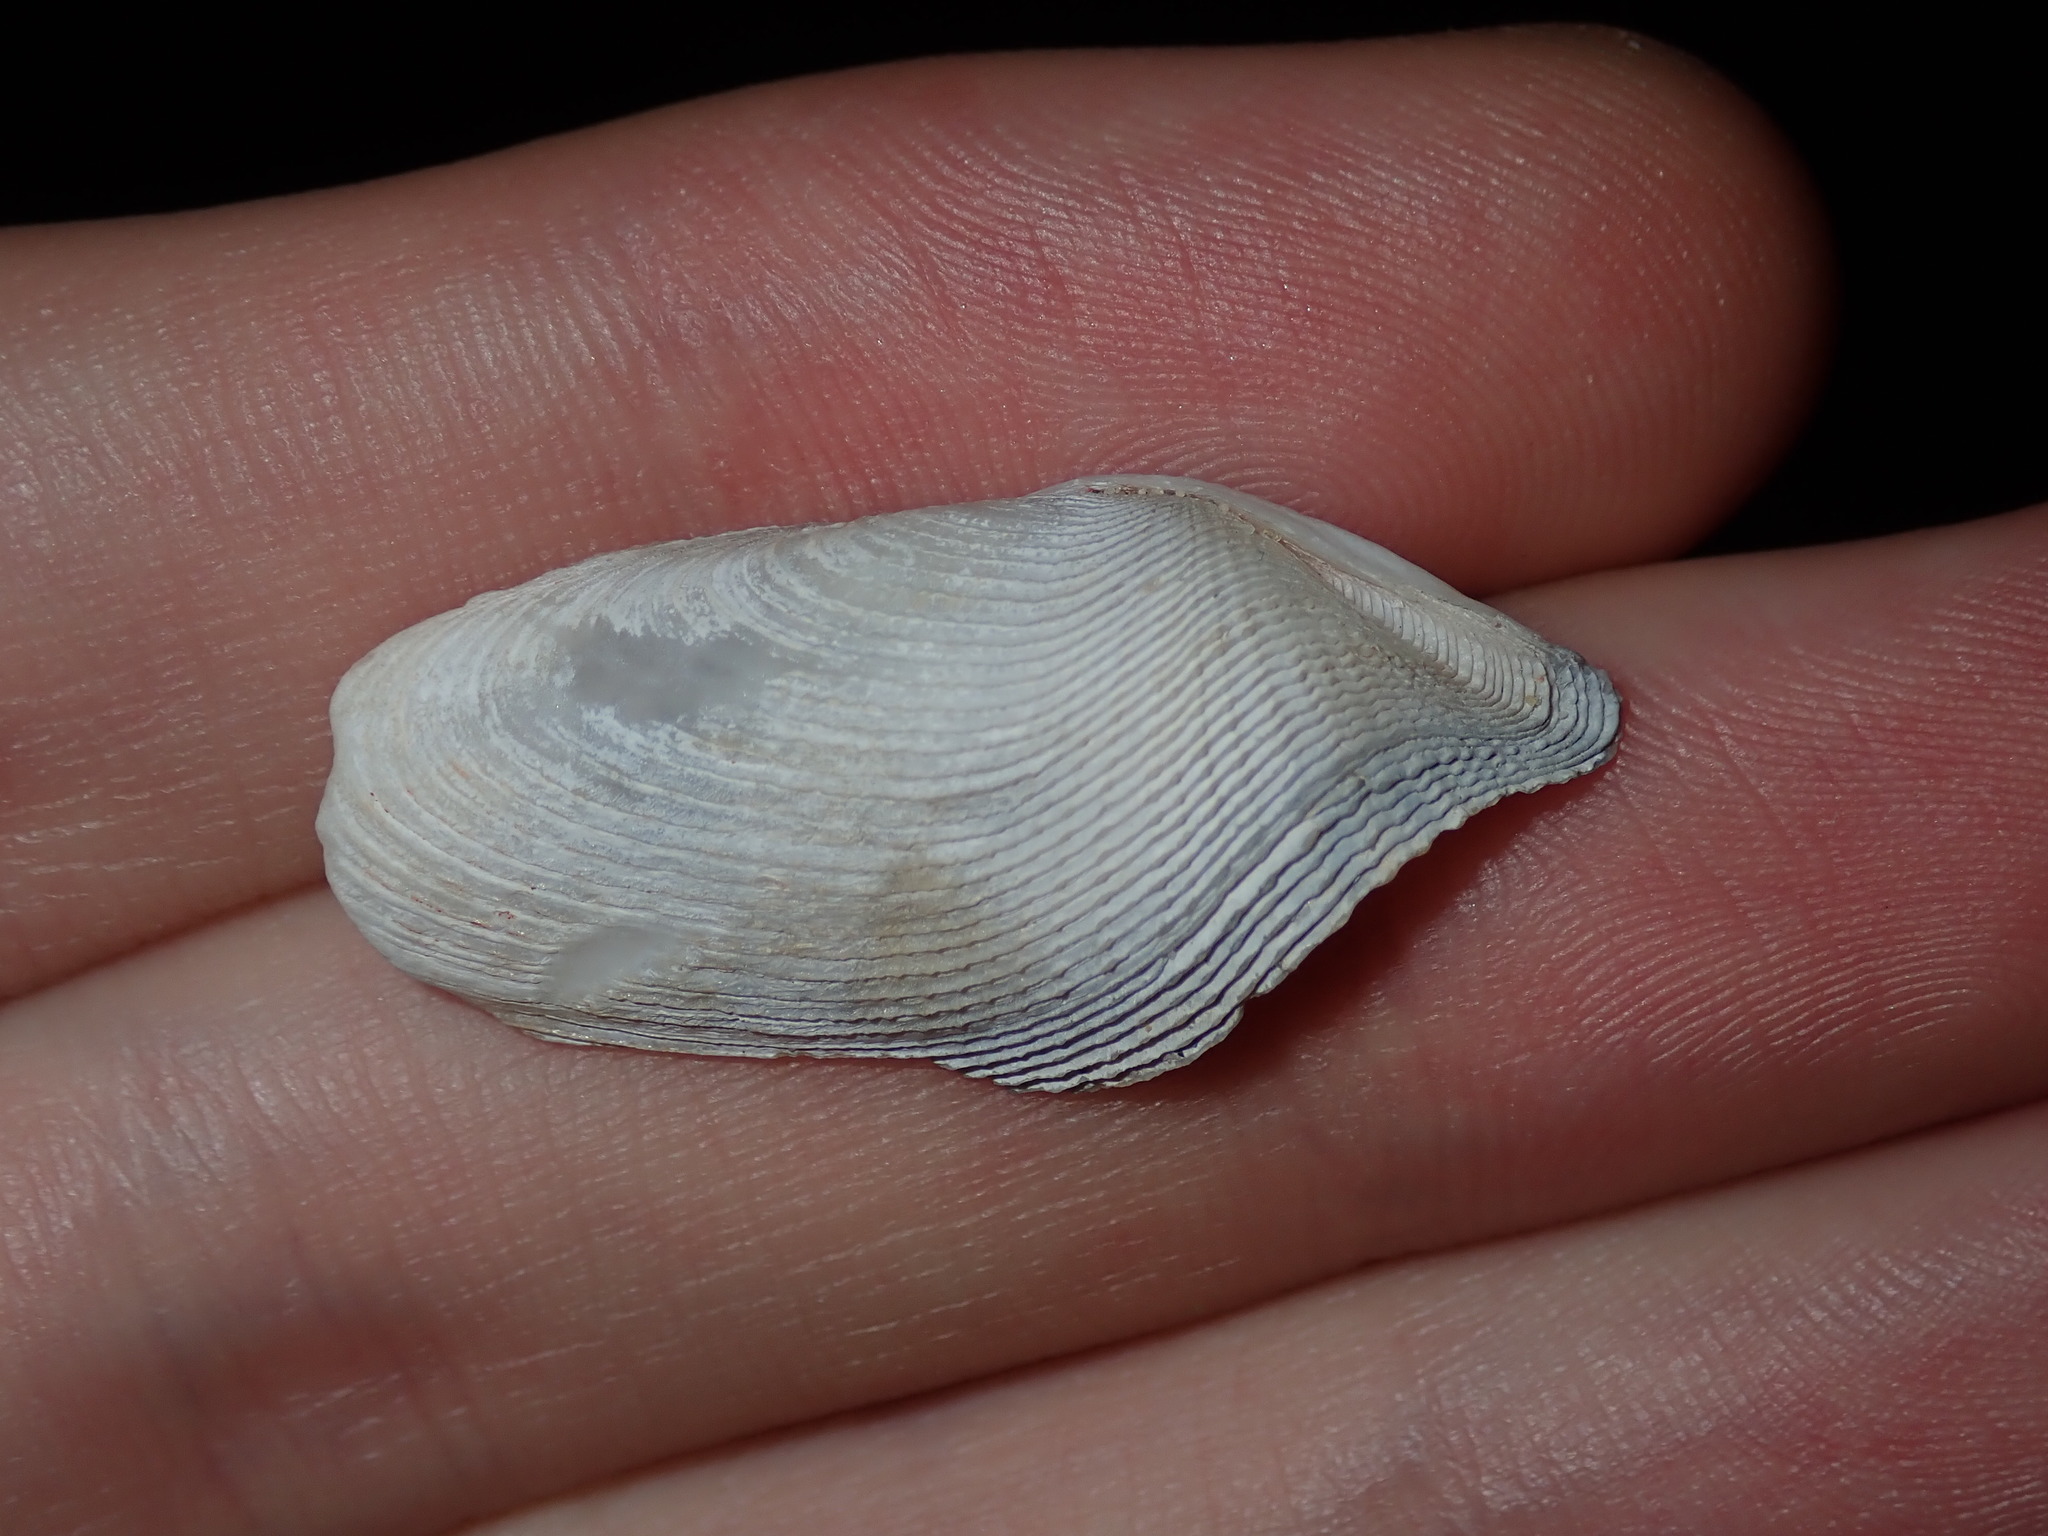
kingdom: Animalia
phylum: Mollusca
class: Bivalvia
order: Myida
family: Pholadidae
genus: Barnea
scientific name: Barnea obturamentum
